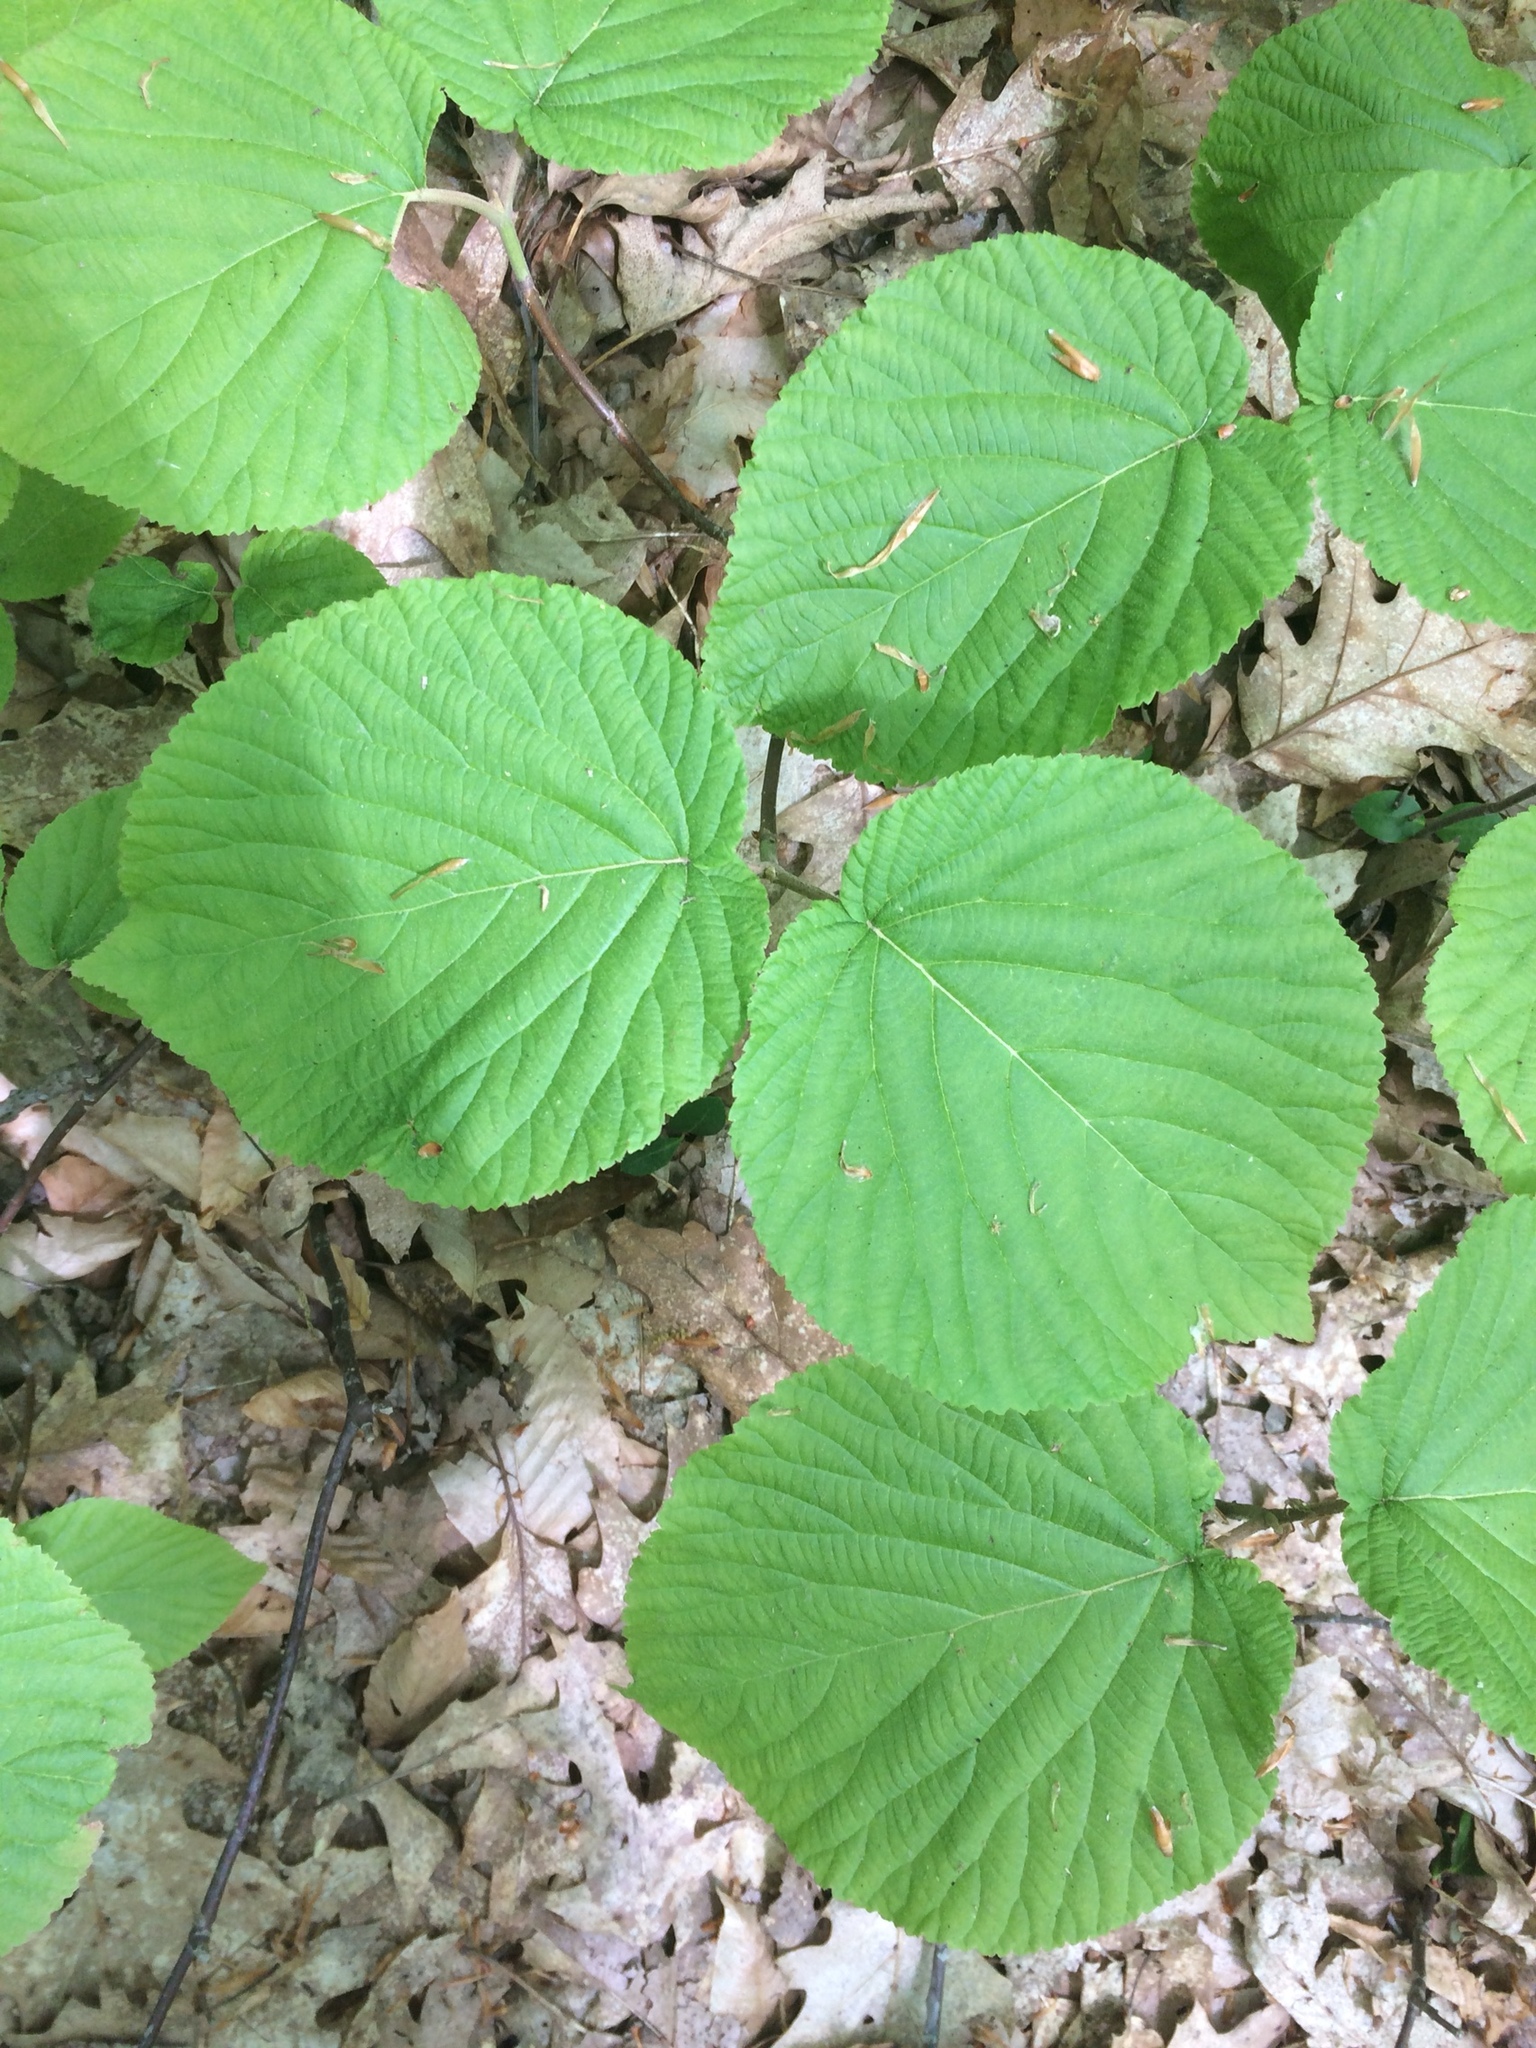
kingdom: Plantae
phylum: Tracheophyta
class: Magnoliopsida
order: Dipsacales
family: Viburnaceae
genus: Viburnum
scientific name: Viburnum lantanoides
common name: Hobblebush
